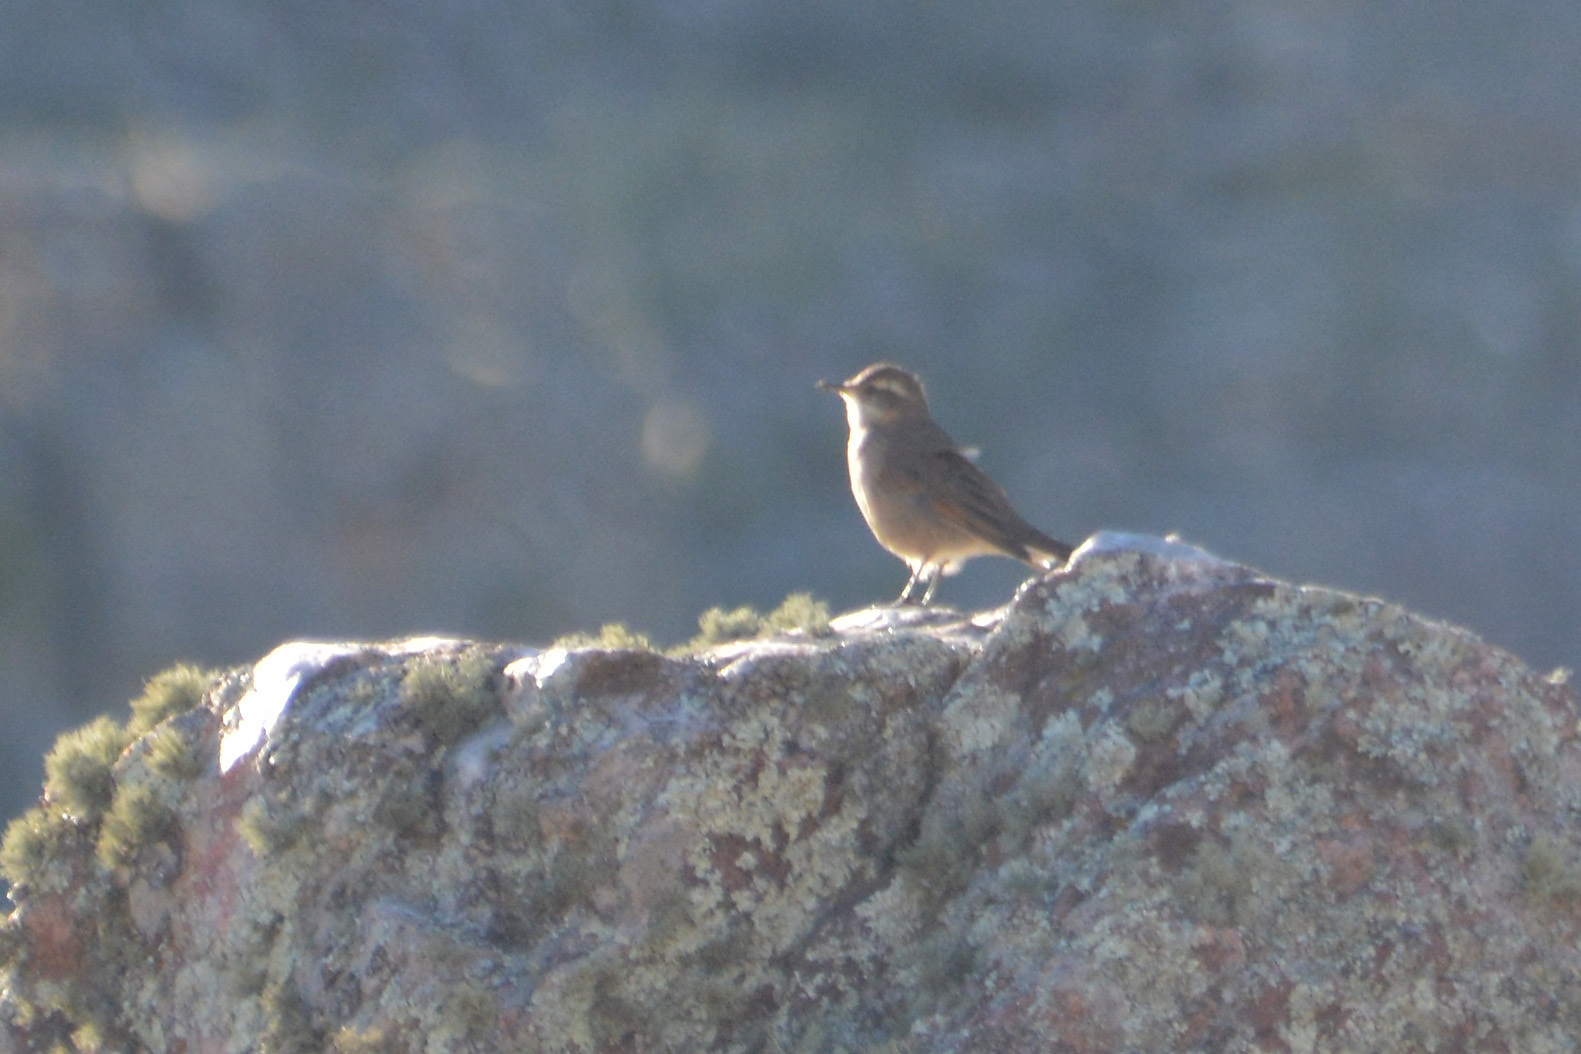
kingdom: Animalia
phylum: Chordata
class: Aves
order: Passeriformes
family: Furnariidae
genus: Cinclodes
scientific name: Cinclodes comechingonus
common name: Cordoba cinclodes
